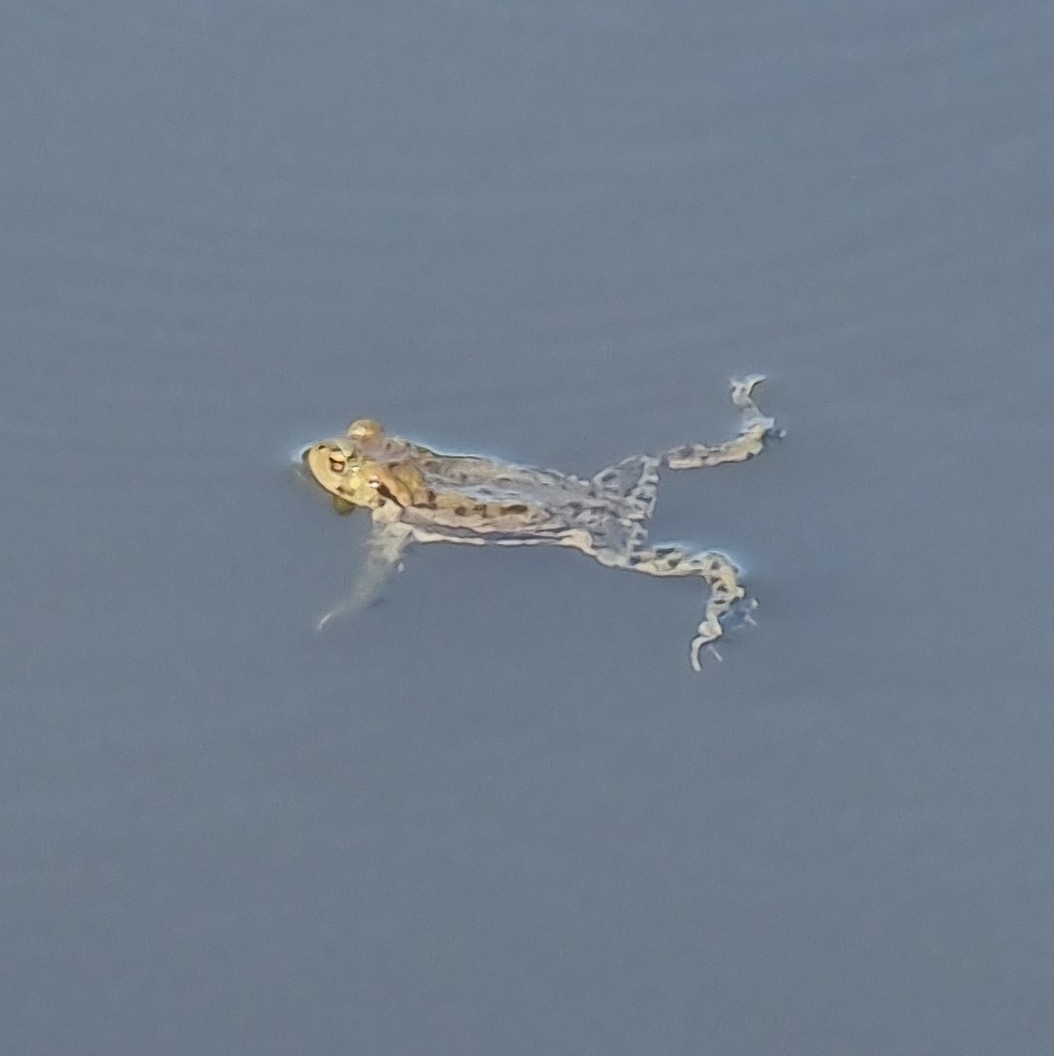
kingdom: Animalia
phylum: Chordata
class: Amphibia
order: Anura
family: Bufonidae
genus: Bufo
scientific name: Bufo bufo
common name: Common toad
